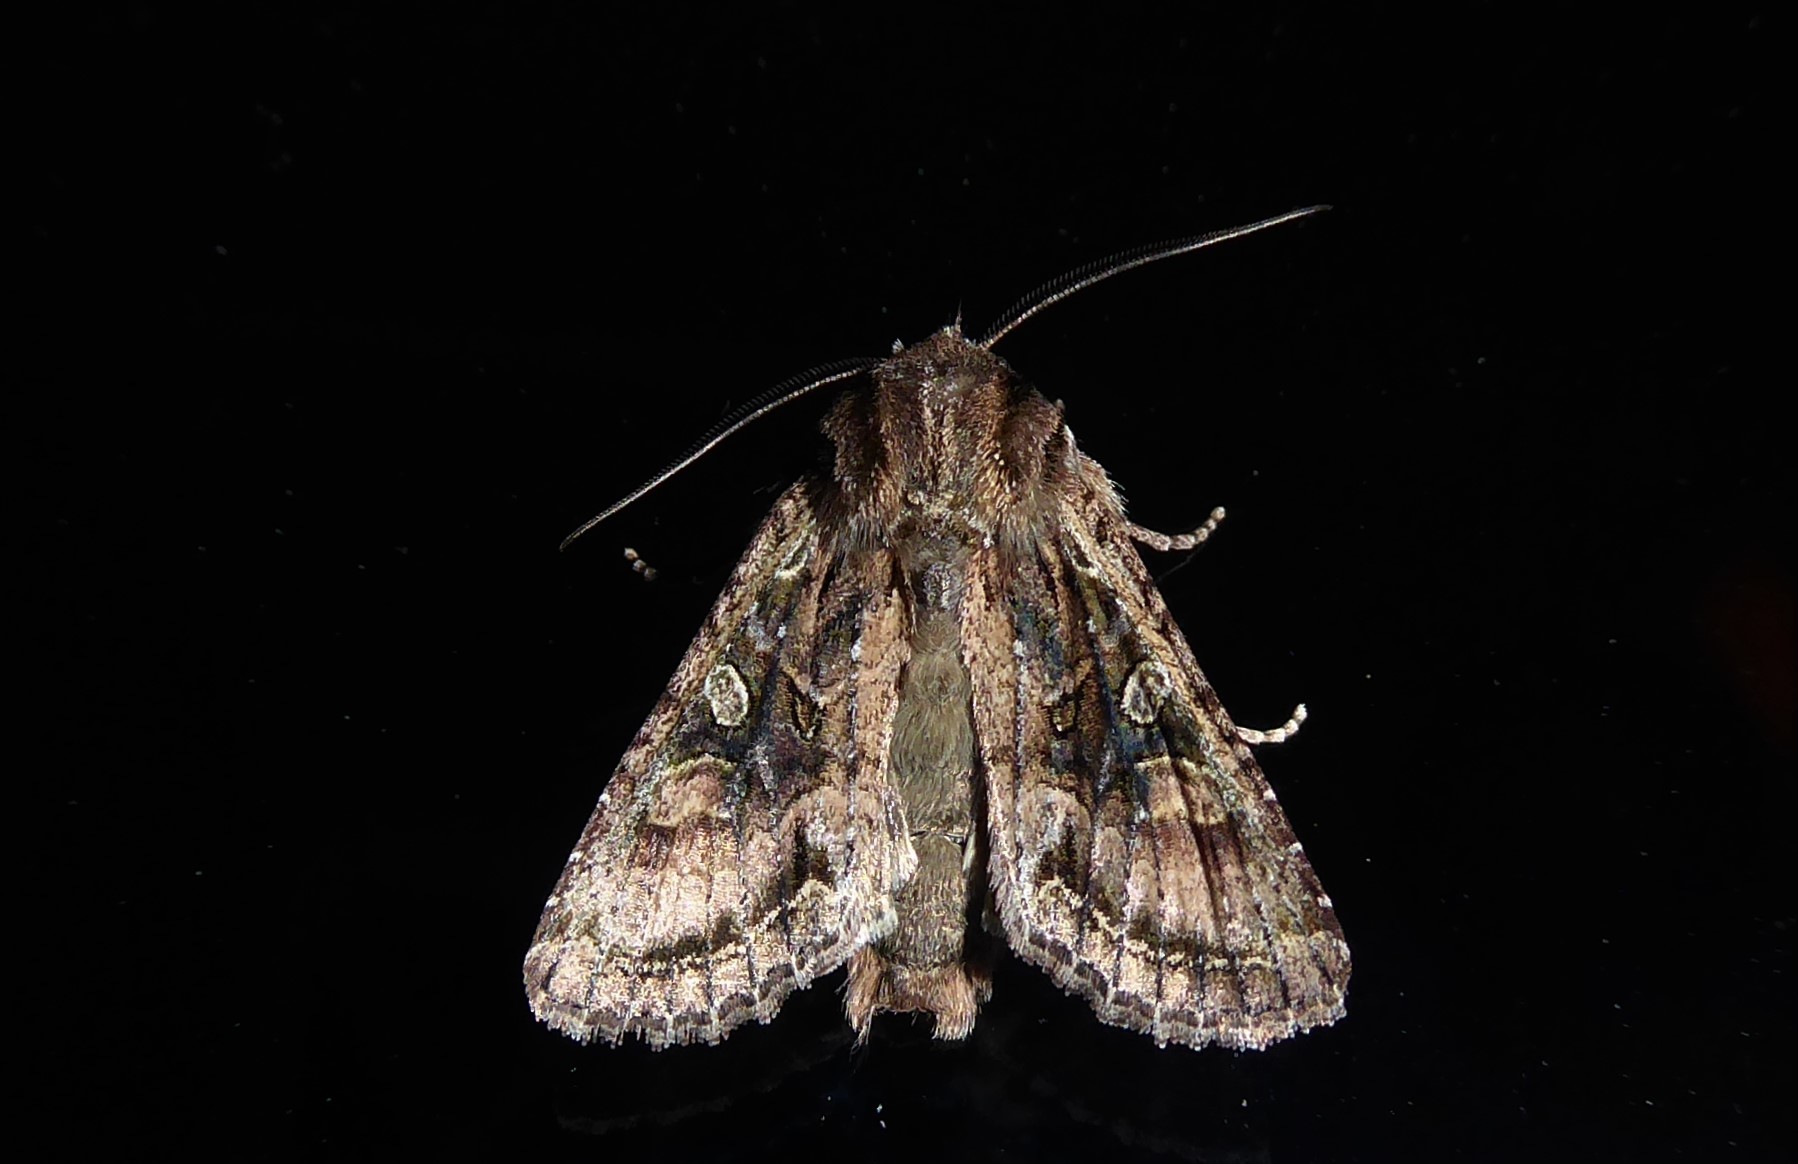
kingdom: Animalia
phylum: Arthropoda
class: Insecta
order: Lepidoptera
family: Noctuidae
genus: Ichneutica
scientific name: Ichneutica mutans
